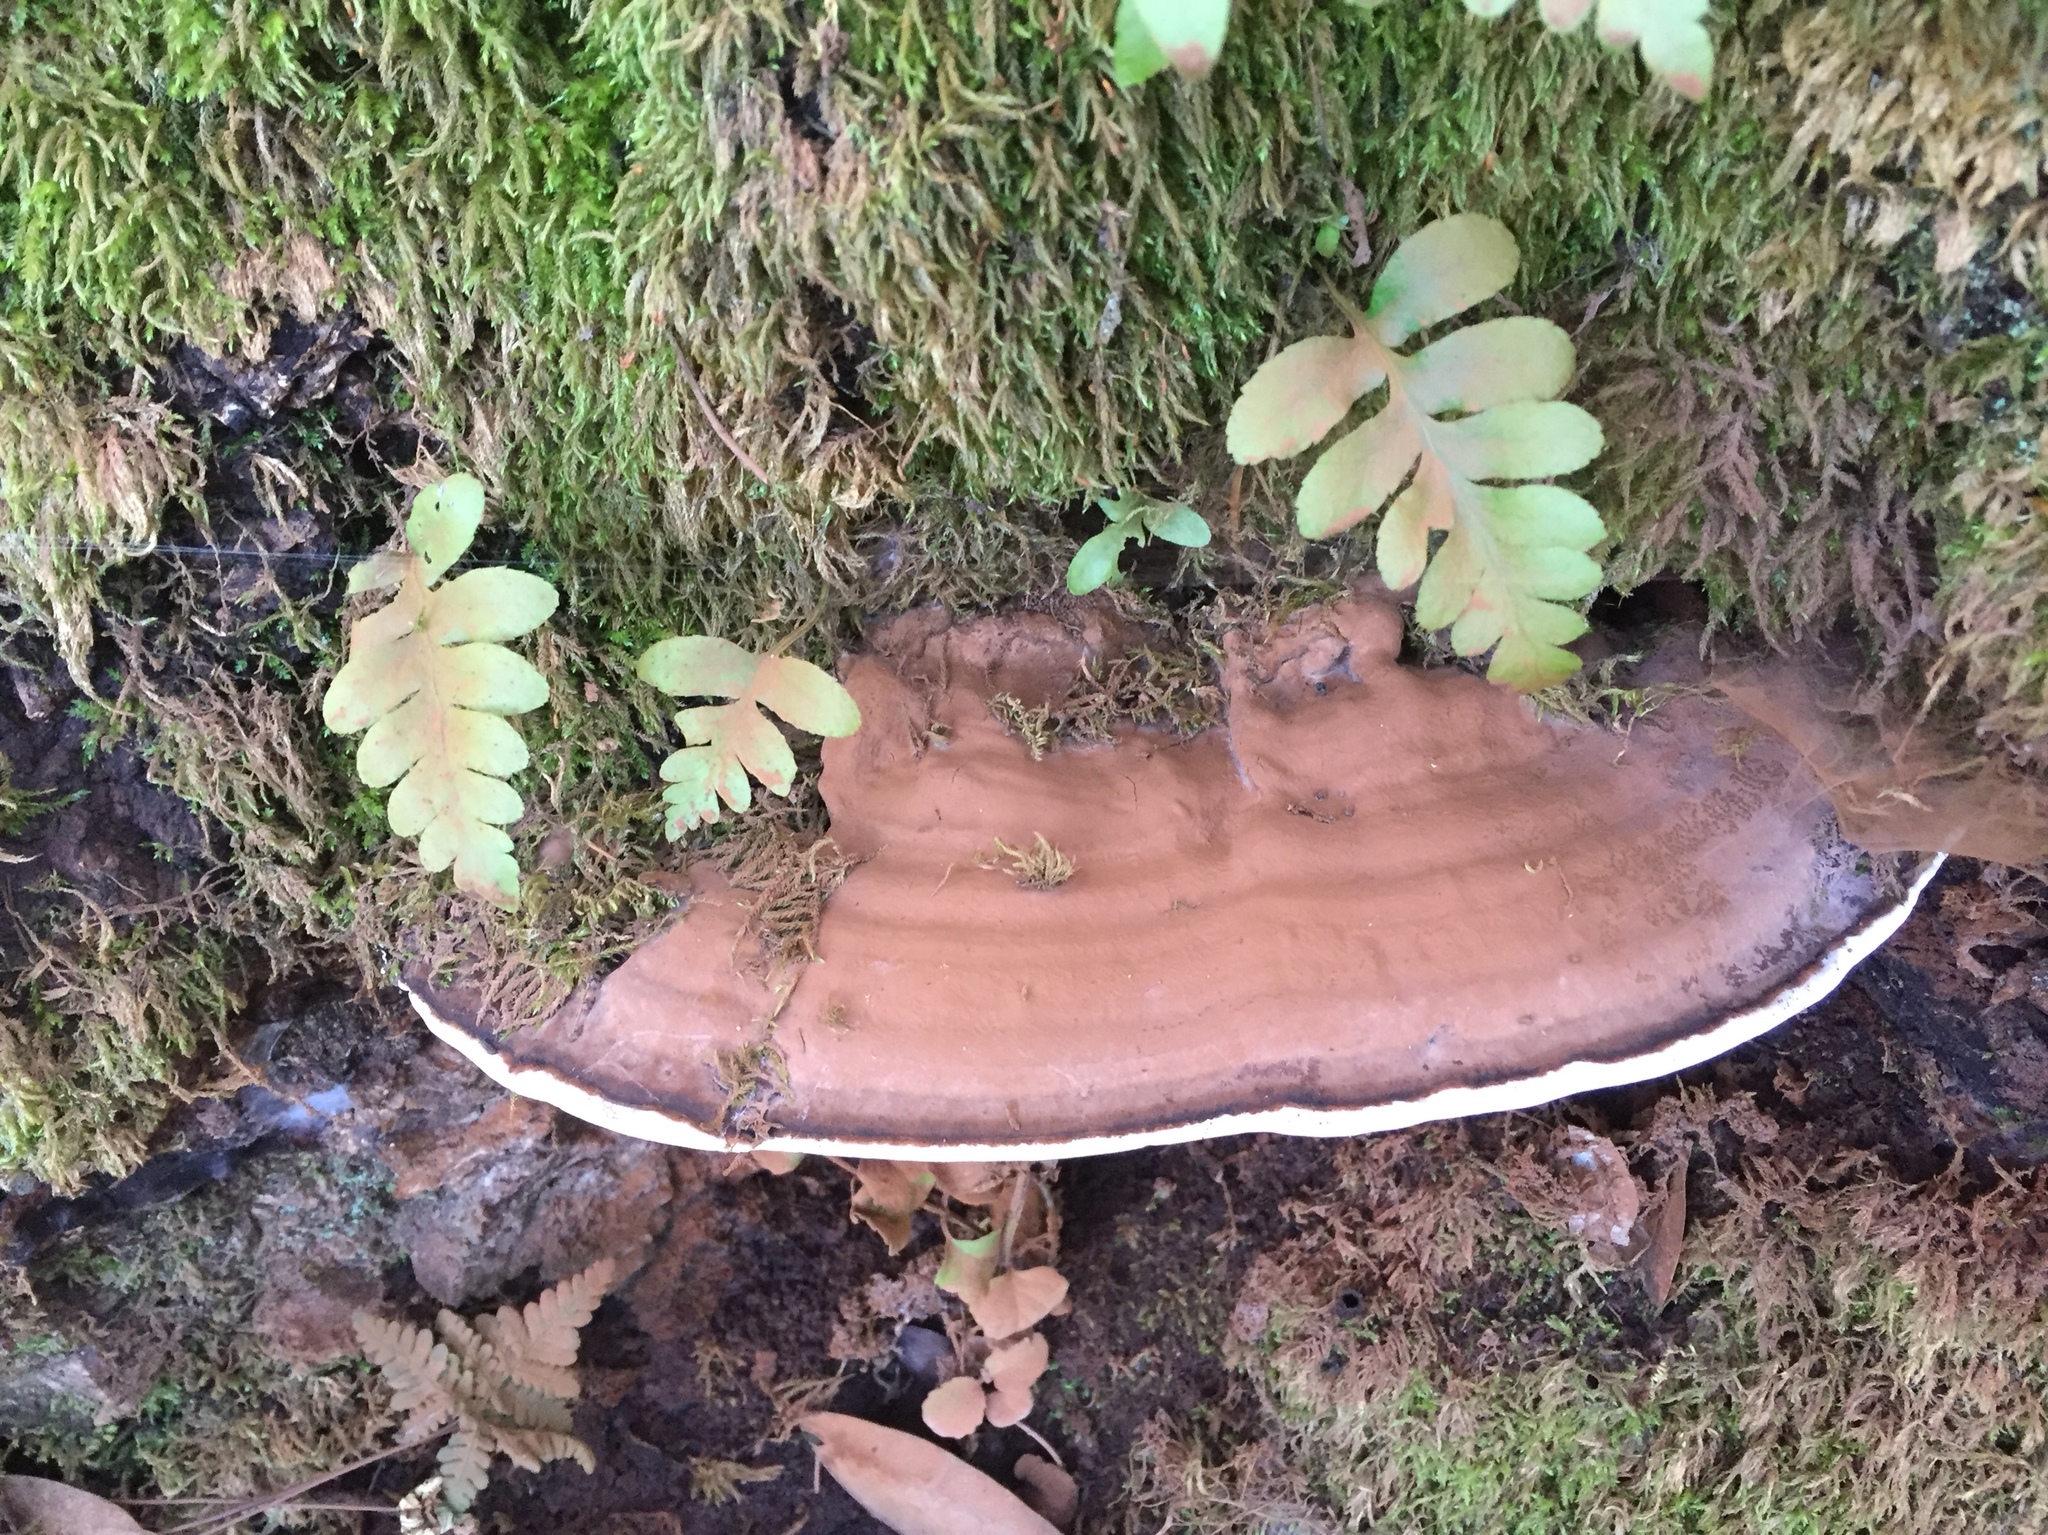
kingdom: Fungi
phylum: Basidiomycota
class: Agaricomycetes
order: Polyporales
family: Polyporaceae
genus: Ganoderma
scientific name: Ganoderma brownii
